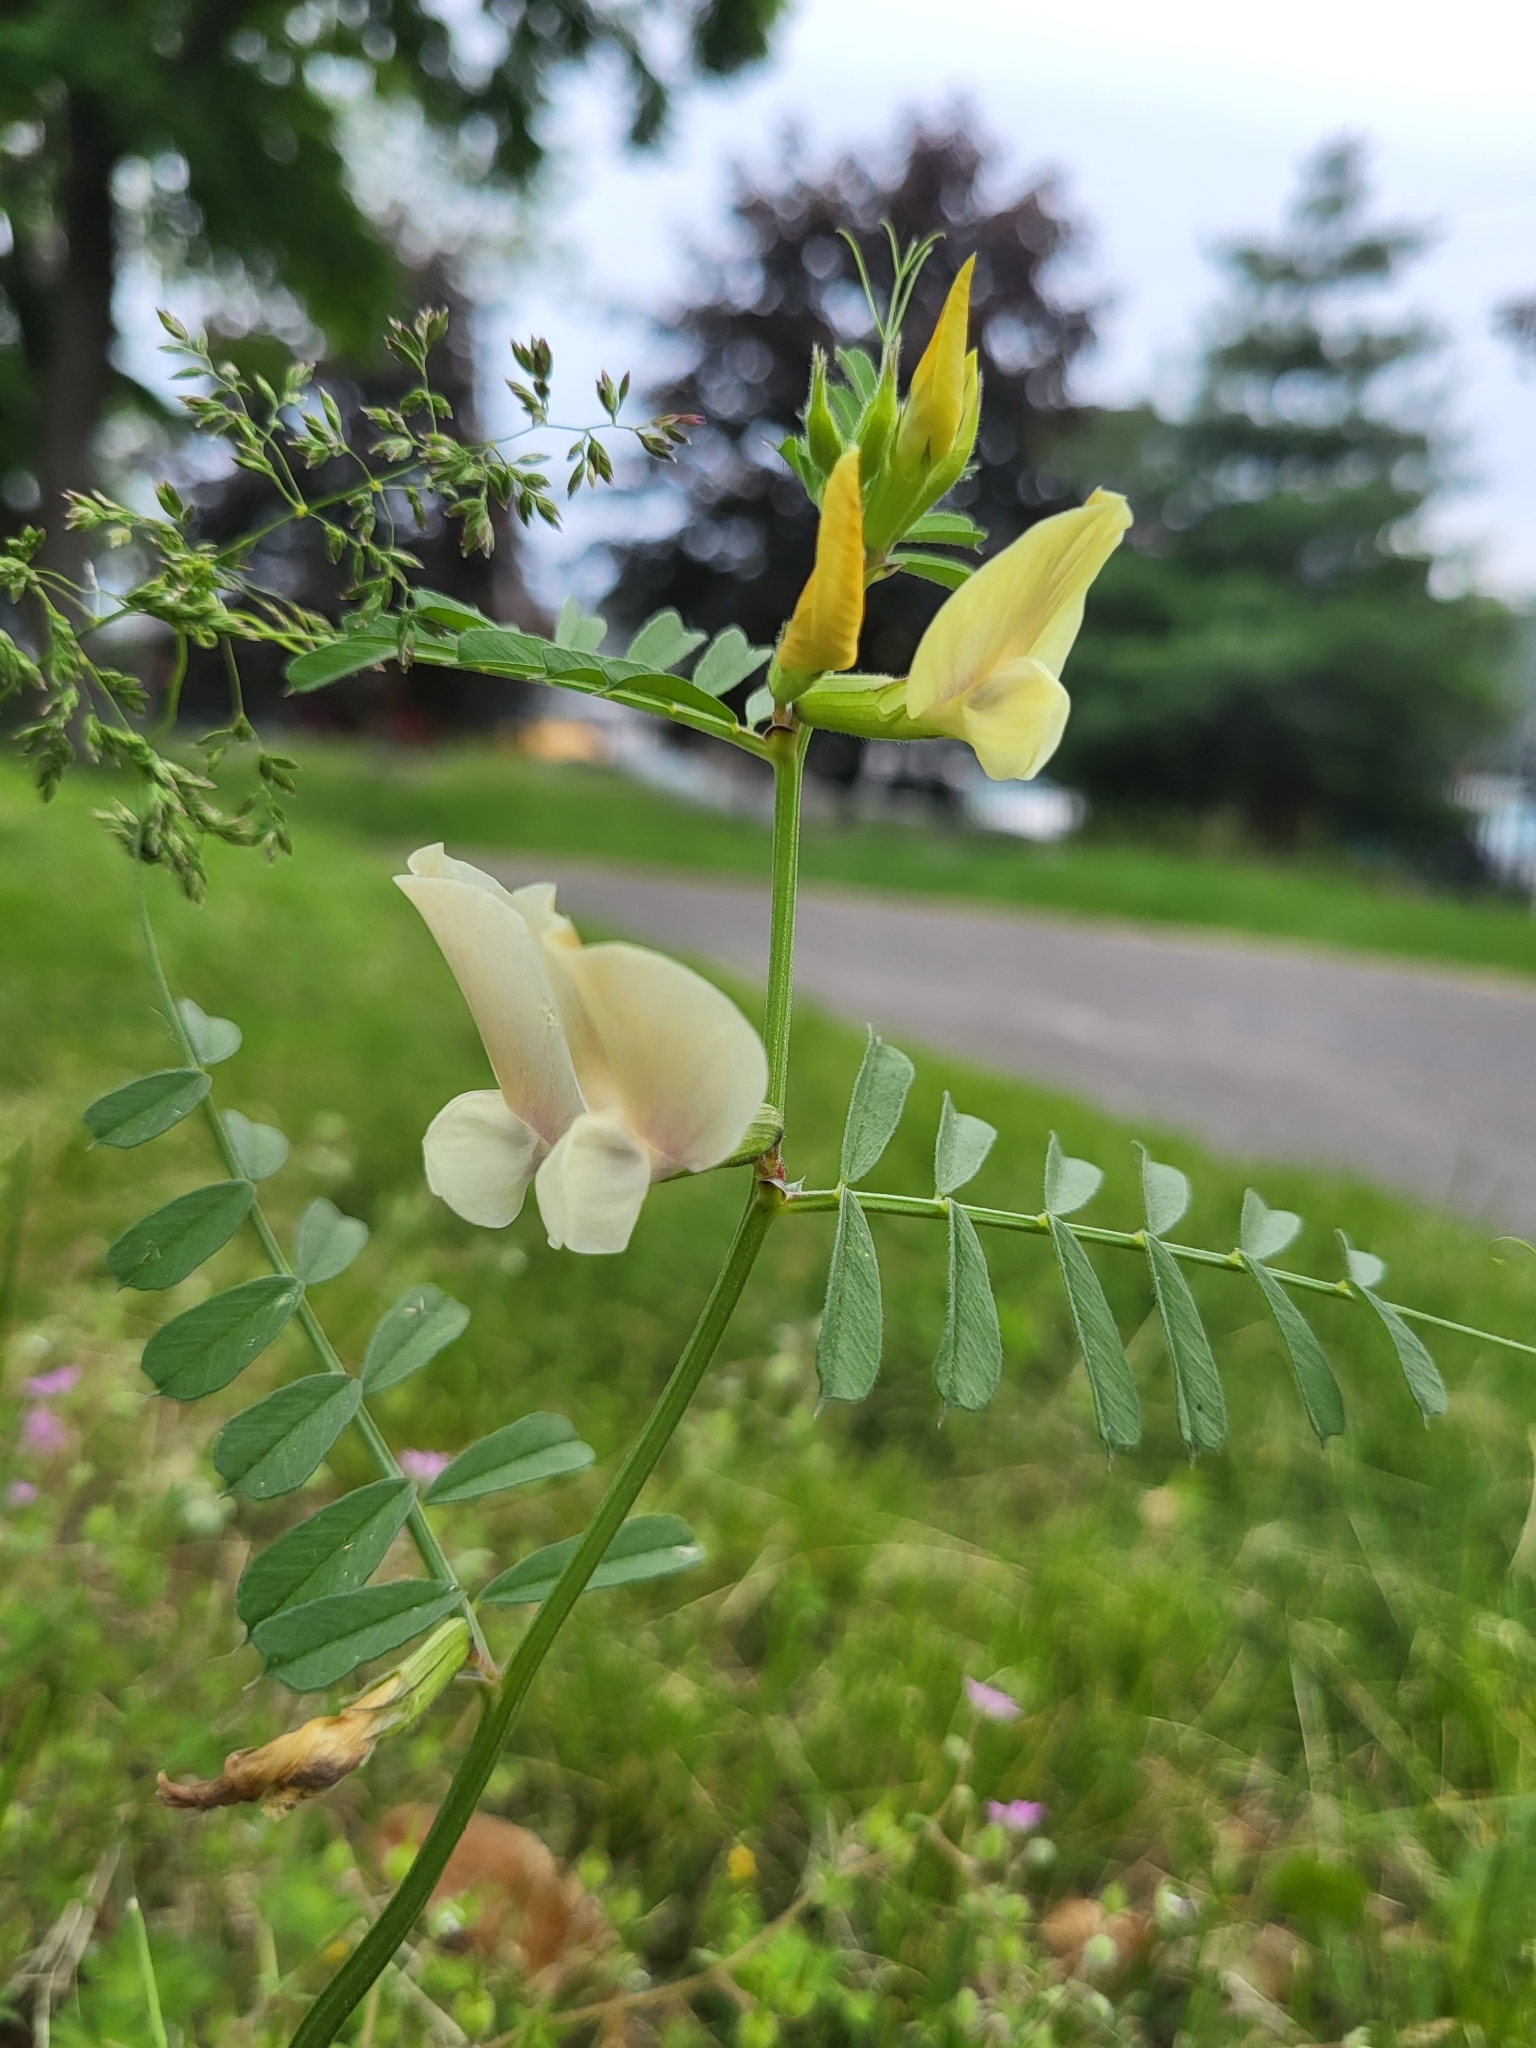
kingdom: Plantae
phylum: Tracheophyta
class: Magnoliopsida
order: Fabales
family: Fabaceae
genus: Vicia
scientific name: Vicia grandiflora
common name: Large yellow vetch
